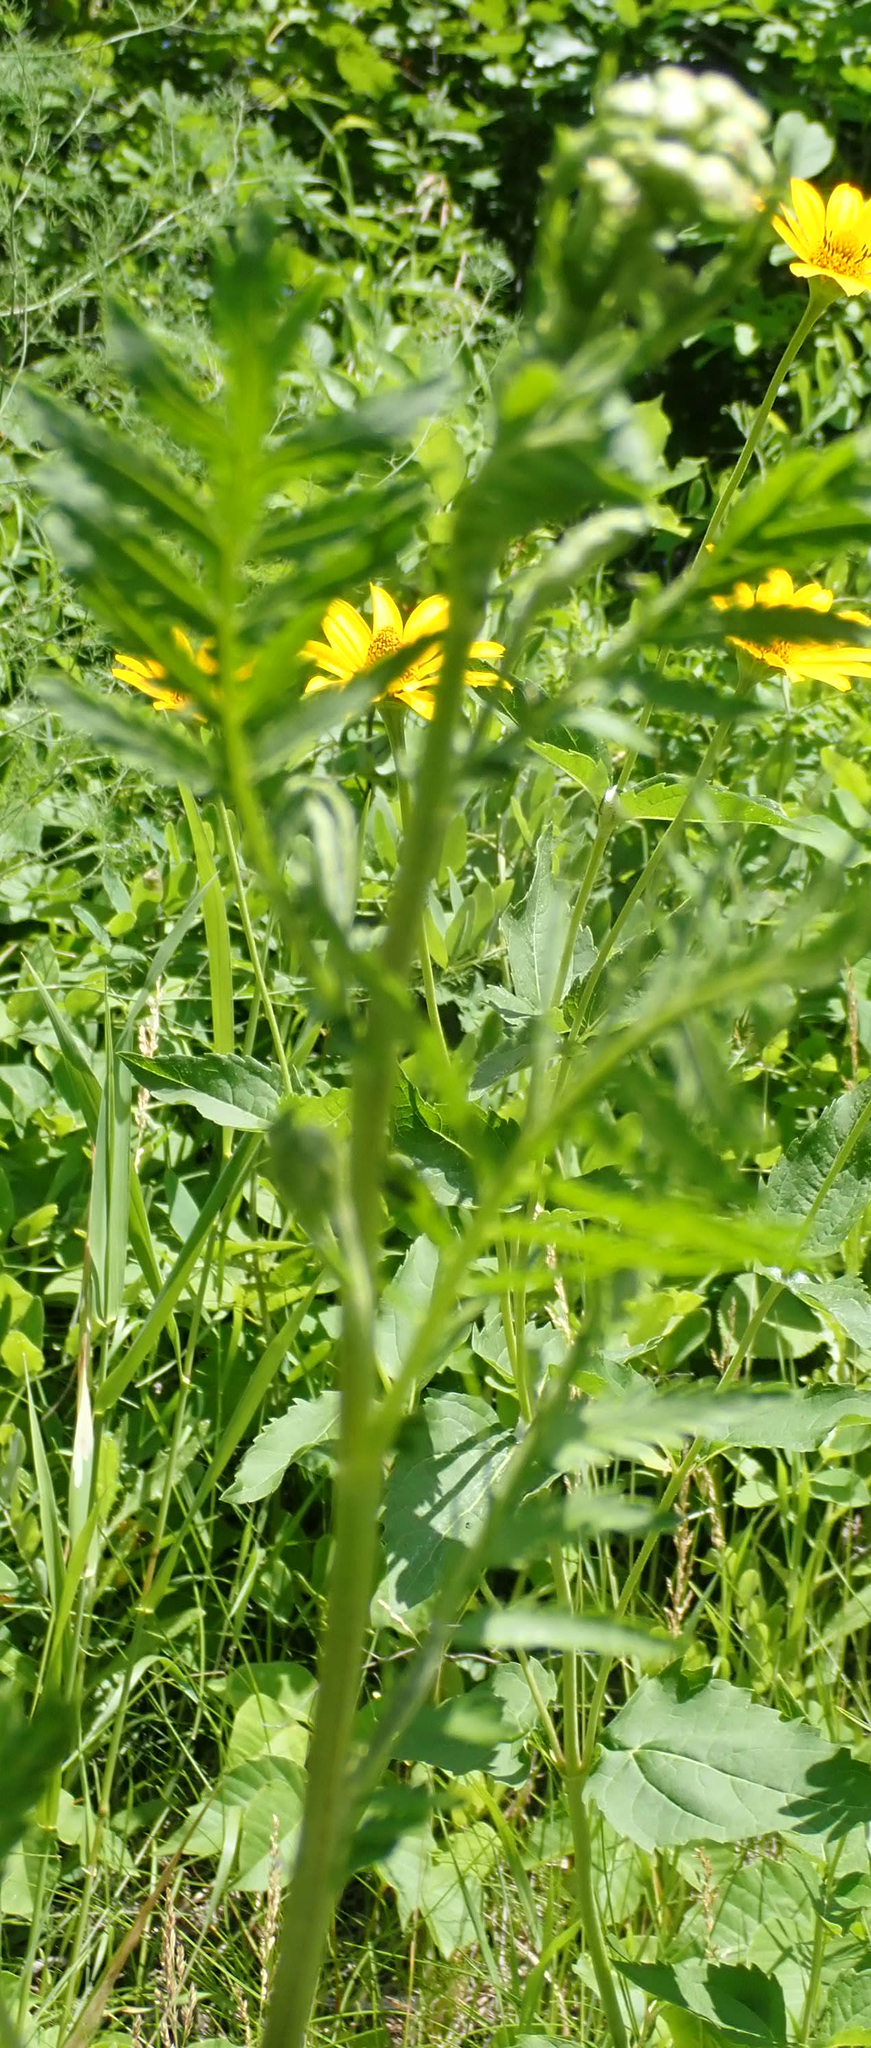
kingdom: Plantae
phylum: Tracheophyta
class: Magnoliopsida
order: Asterales
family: Asteraceae
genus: Tanacetum
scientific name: Tanacetum vulgare
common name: Common tansy
